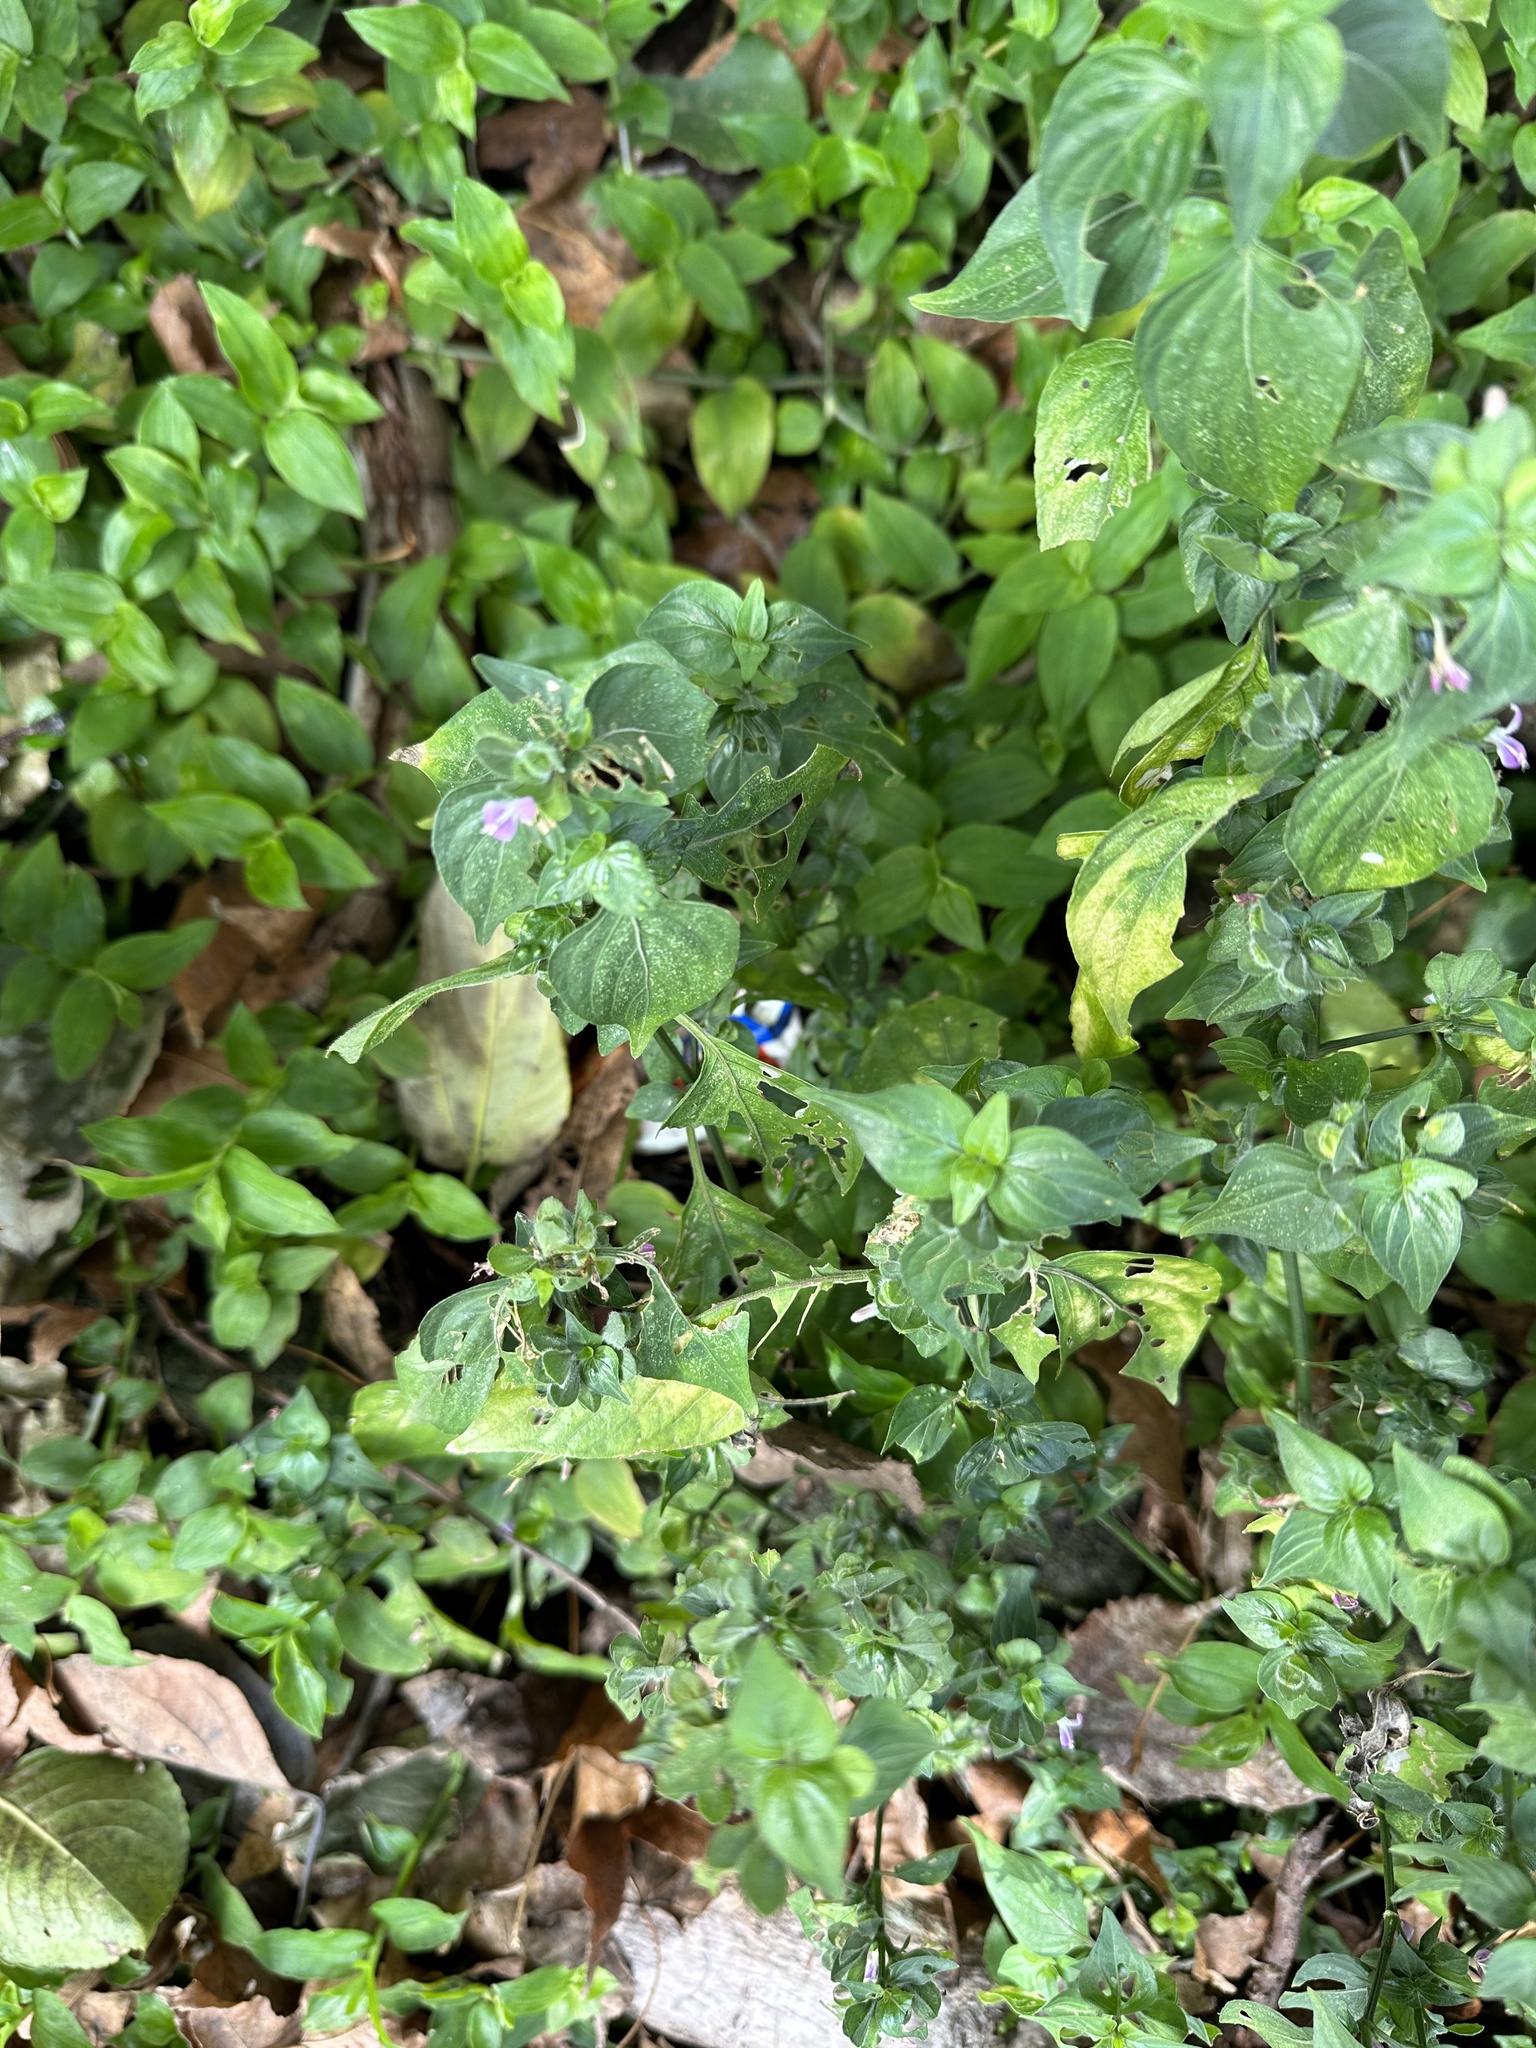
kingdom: Plantae
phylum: Tracheophyta
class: Magnoliopsida
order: Lamiales
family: Acanthaceae
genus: Dicliptera
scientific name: Dicliptera chinensis
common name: Chinese foldwing
